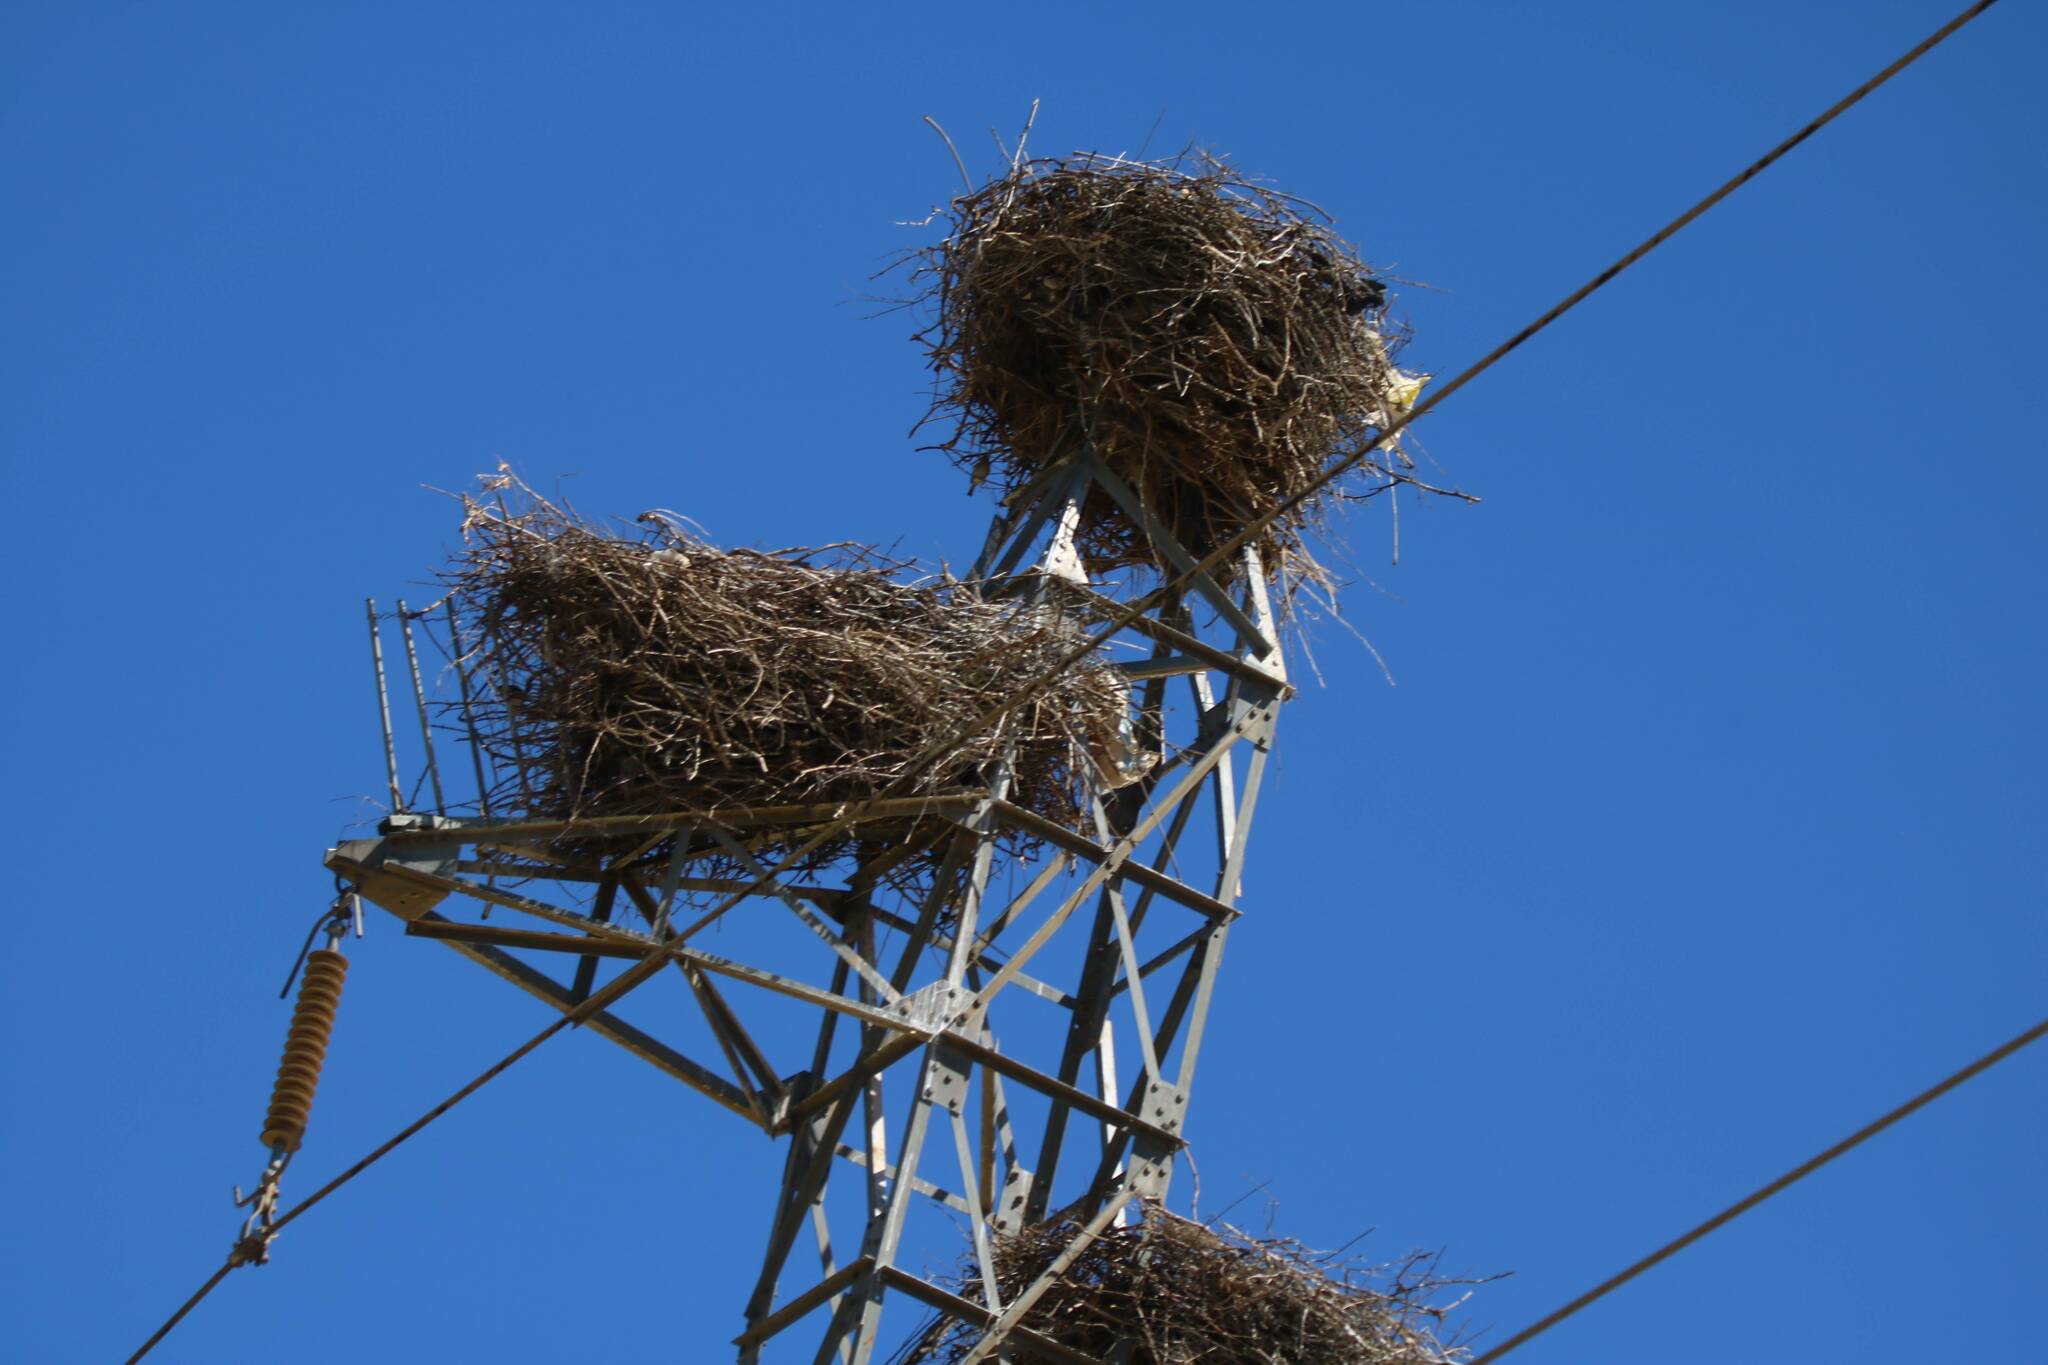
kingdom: Animalia
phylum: Chordata
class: Aves
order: Ciconiiformes
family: Ciconiidae
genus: Ciconia
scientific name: Ciconia ciconia
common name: White stork
